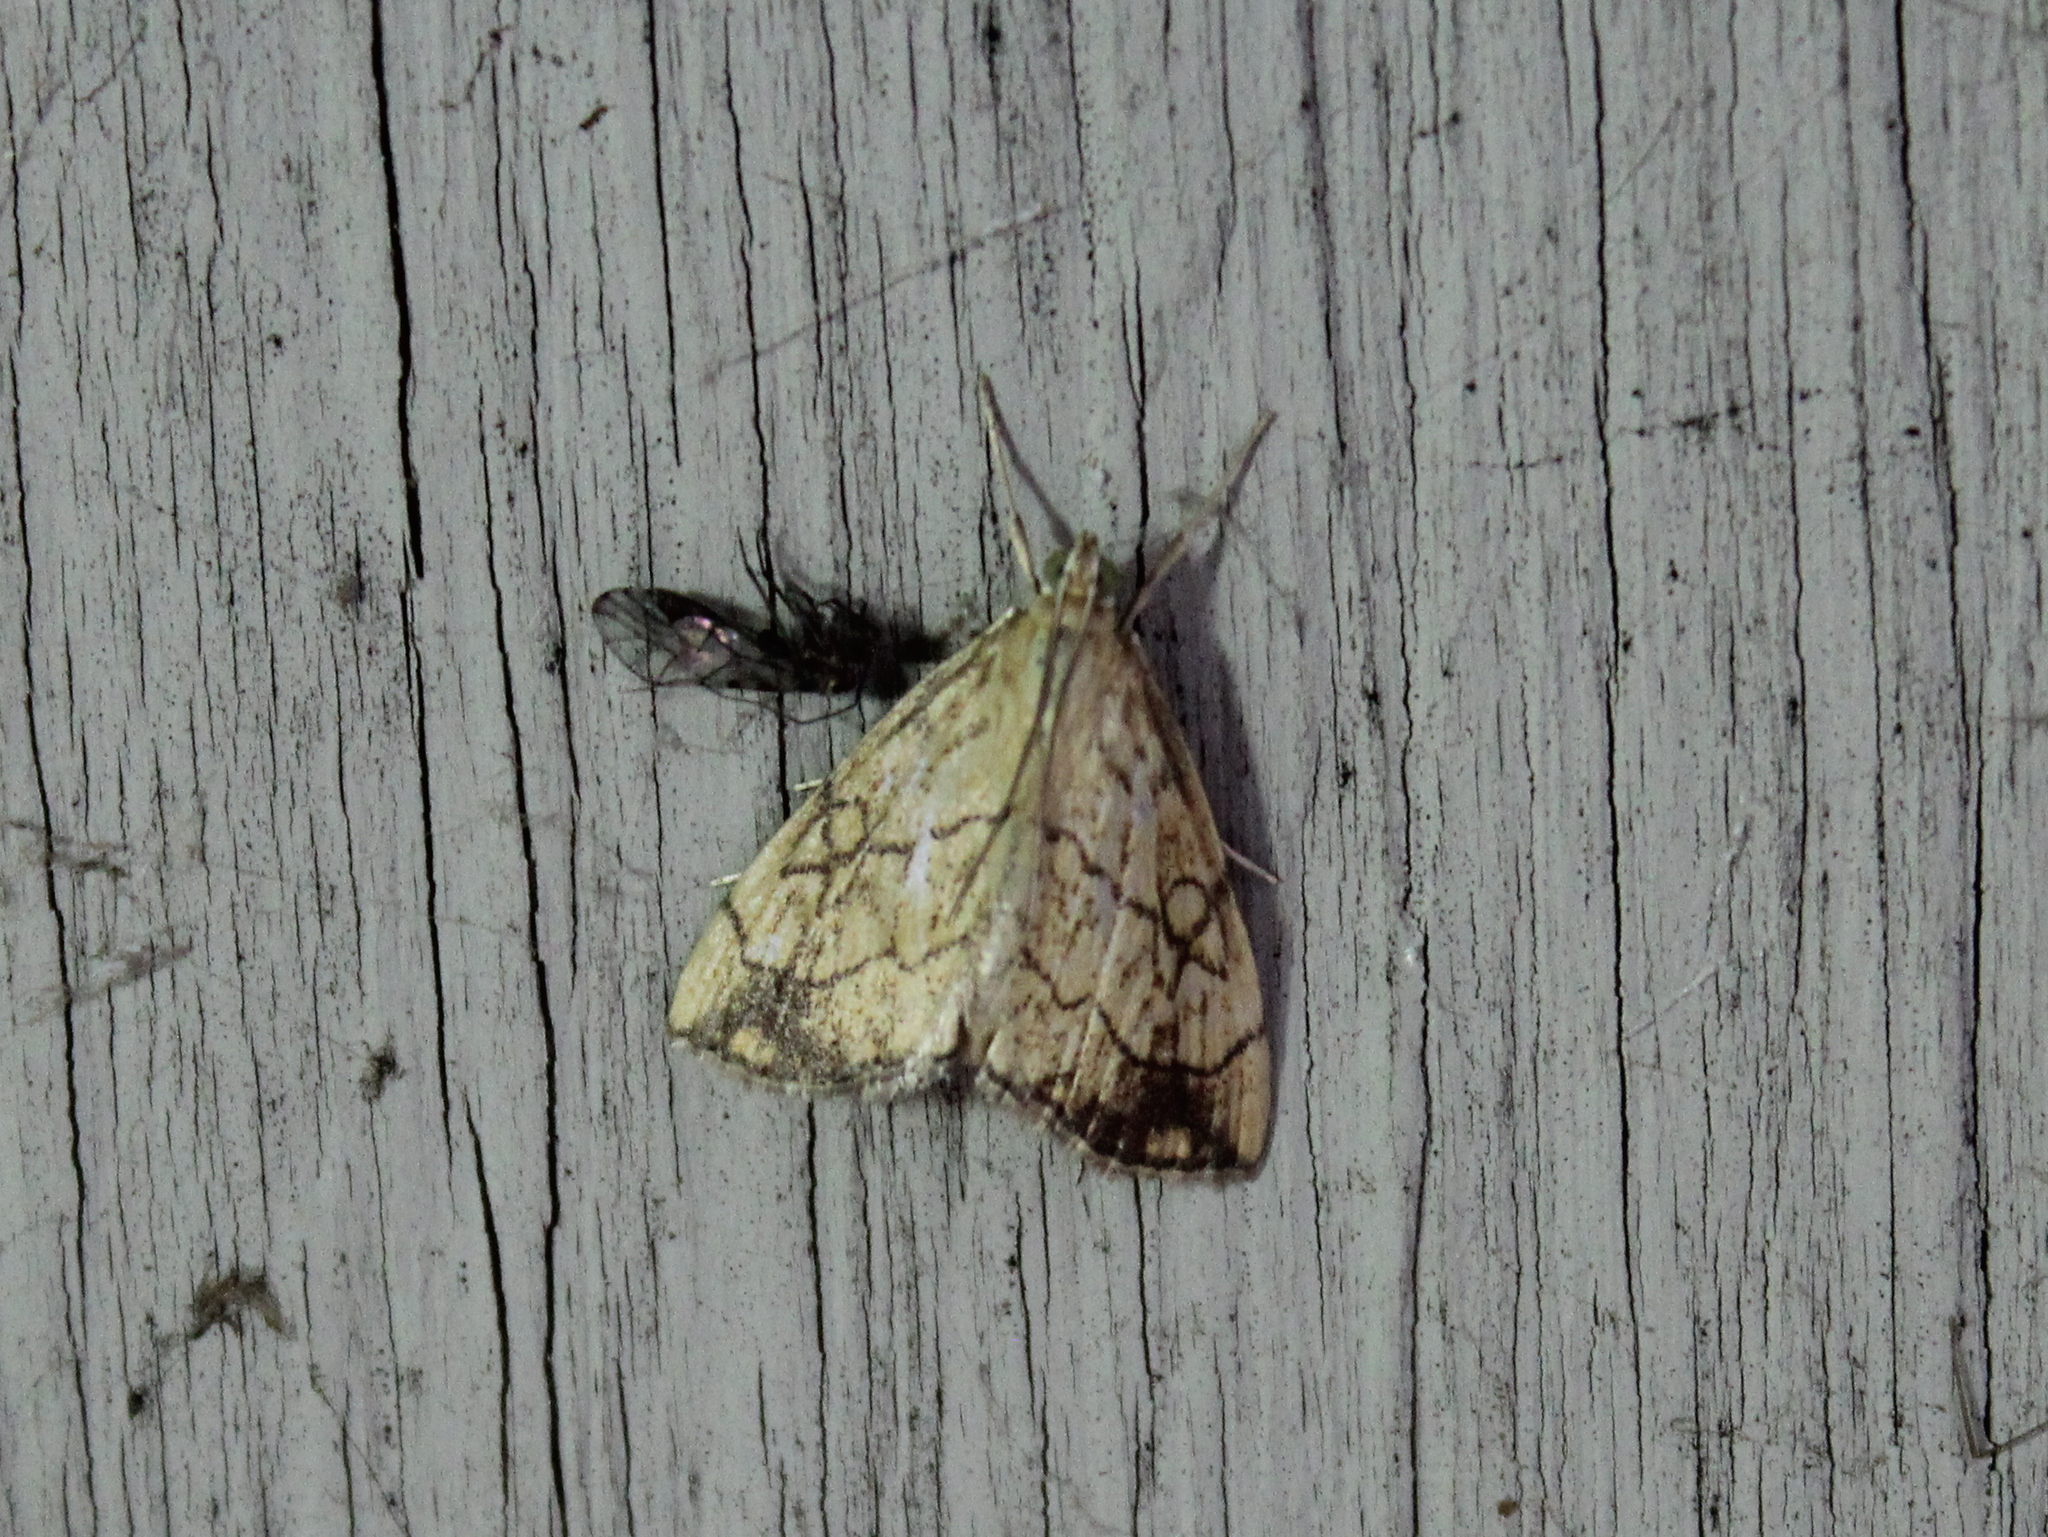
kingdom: Animalia
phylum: Arthropoda
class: Insecta
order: Lepidoptera
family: Crambidae
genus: Evergestis
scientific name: Evergestis pallidata
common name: Chequered pearl
